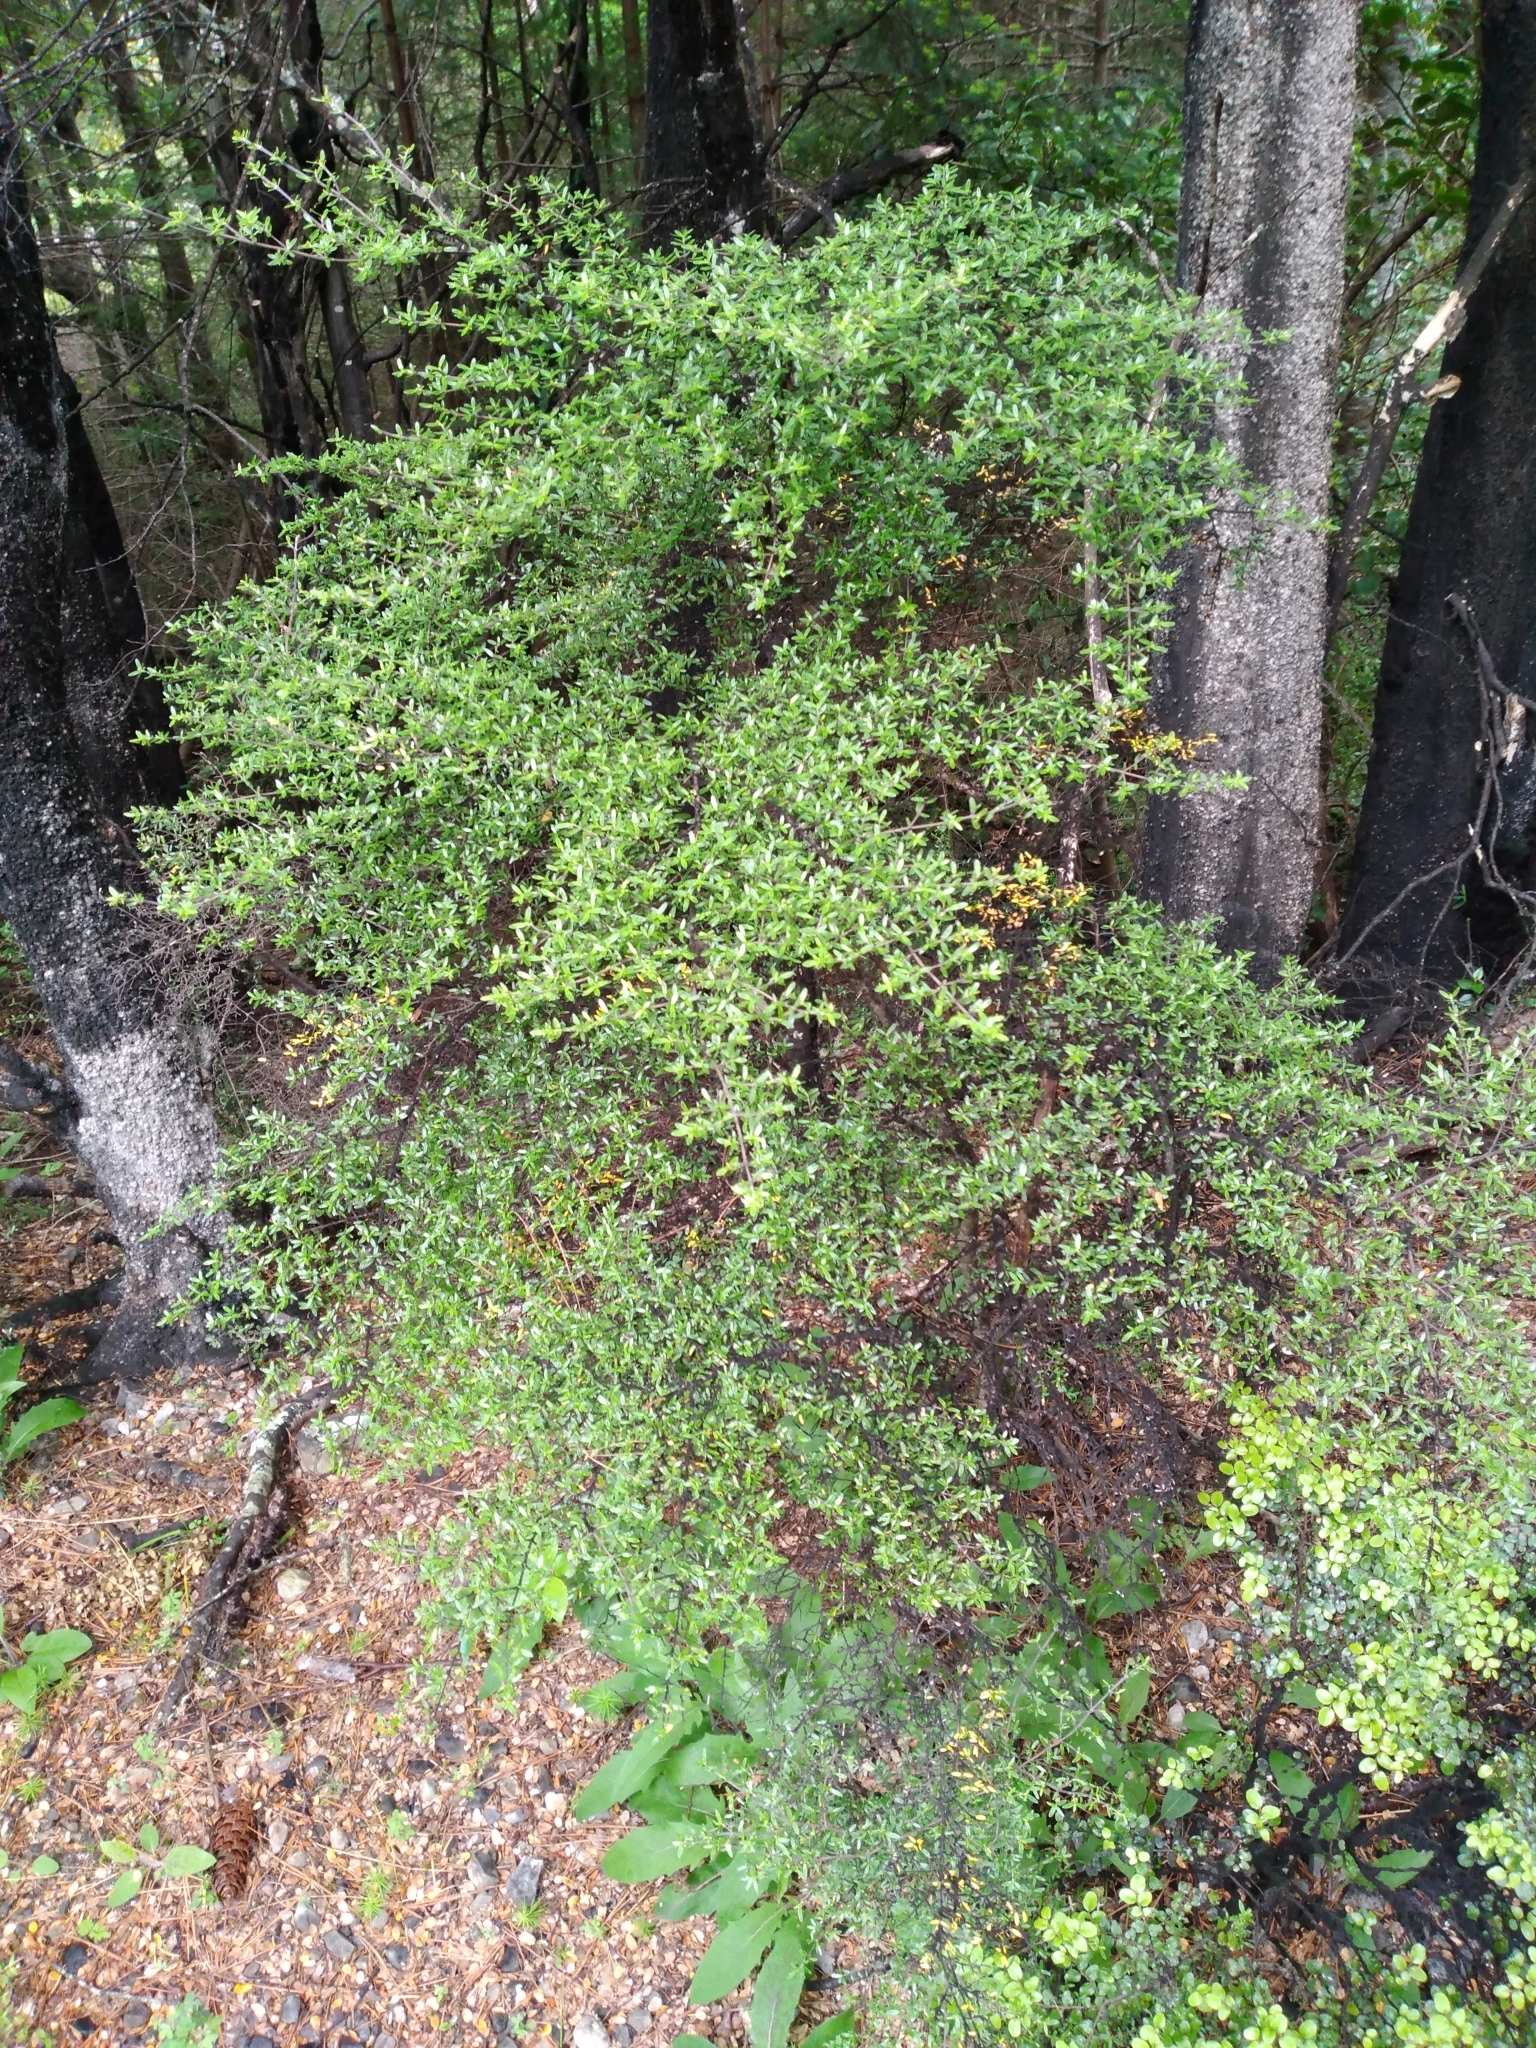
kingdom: Plantae
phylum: Tracheophyta
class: Magnoliopsida
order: Gentianales
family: Rubiaceae
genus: Coprosma
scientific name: Coprosma microcarpa
